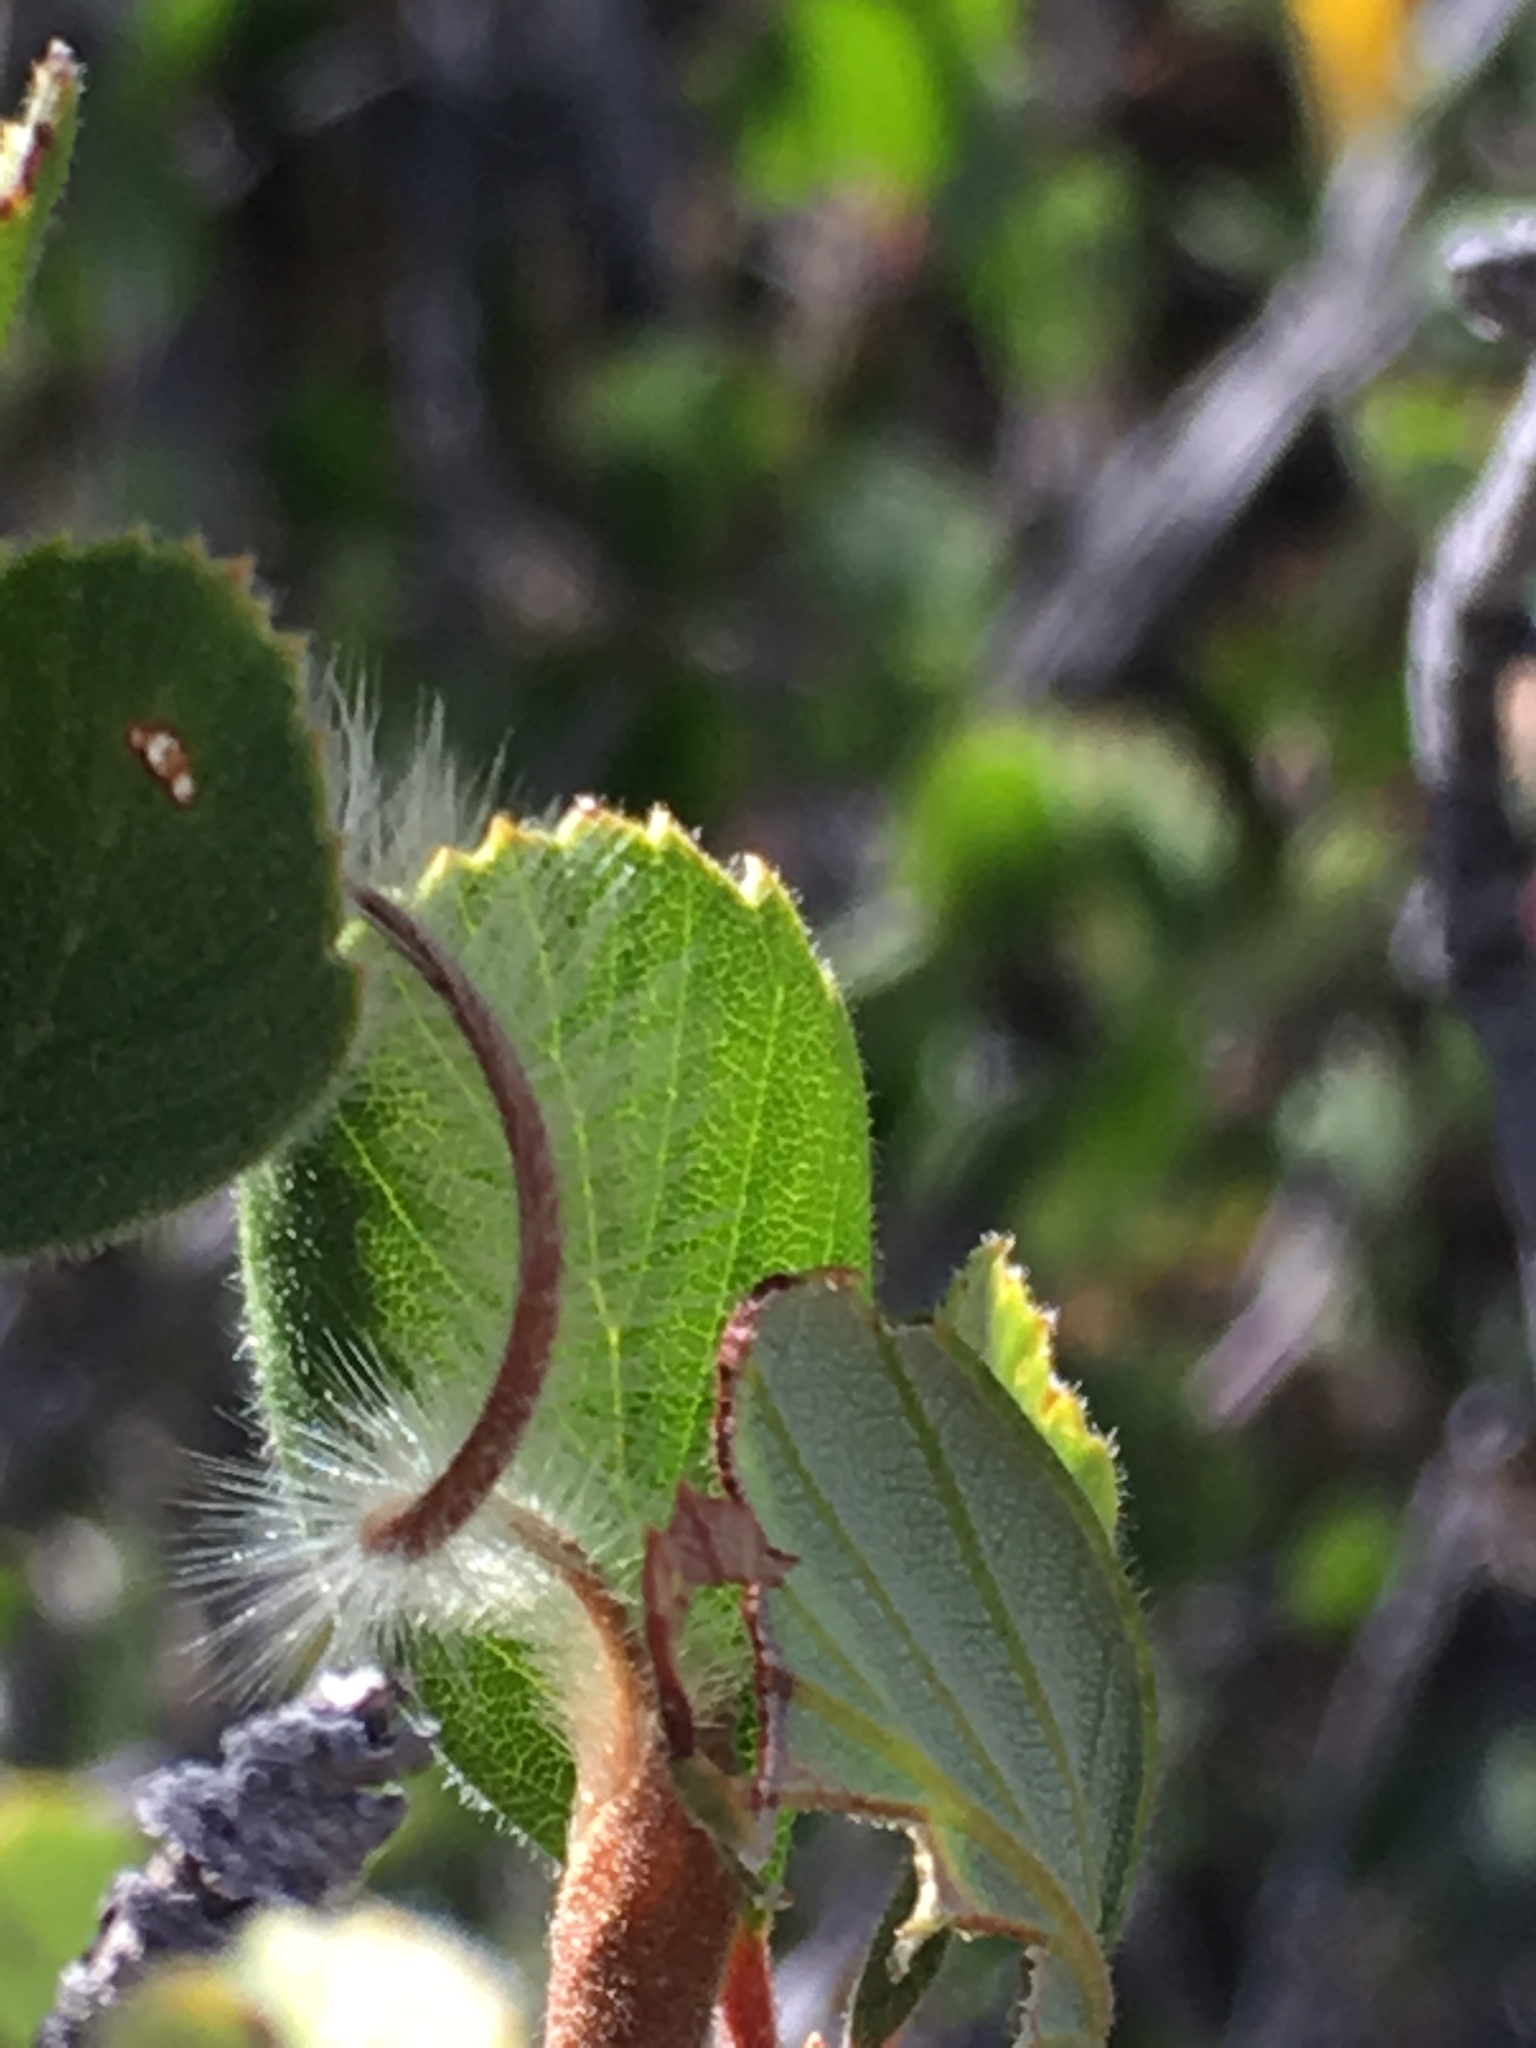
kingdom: Plantae
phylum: Tracheophyta
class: Magnoliopsida
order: Rosales
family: Rosaceae
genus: Cercocarpus
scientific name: Cercocarpus betuloides
